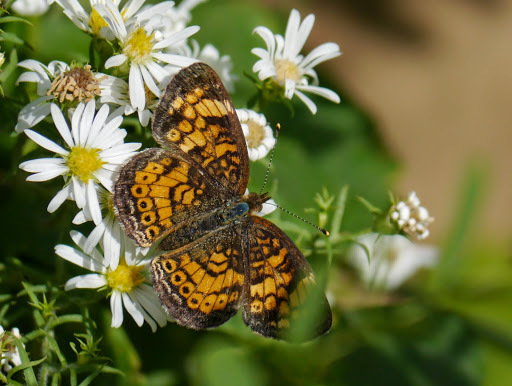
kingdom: Animalia
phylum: Arthropoda
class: Insecta
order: Lepidoptera
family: Nymphalidae
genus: Phyciodes
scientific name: Phyciodes tharos
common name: Pearl crescent
